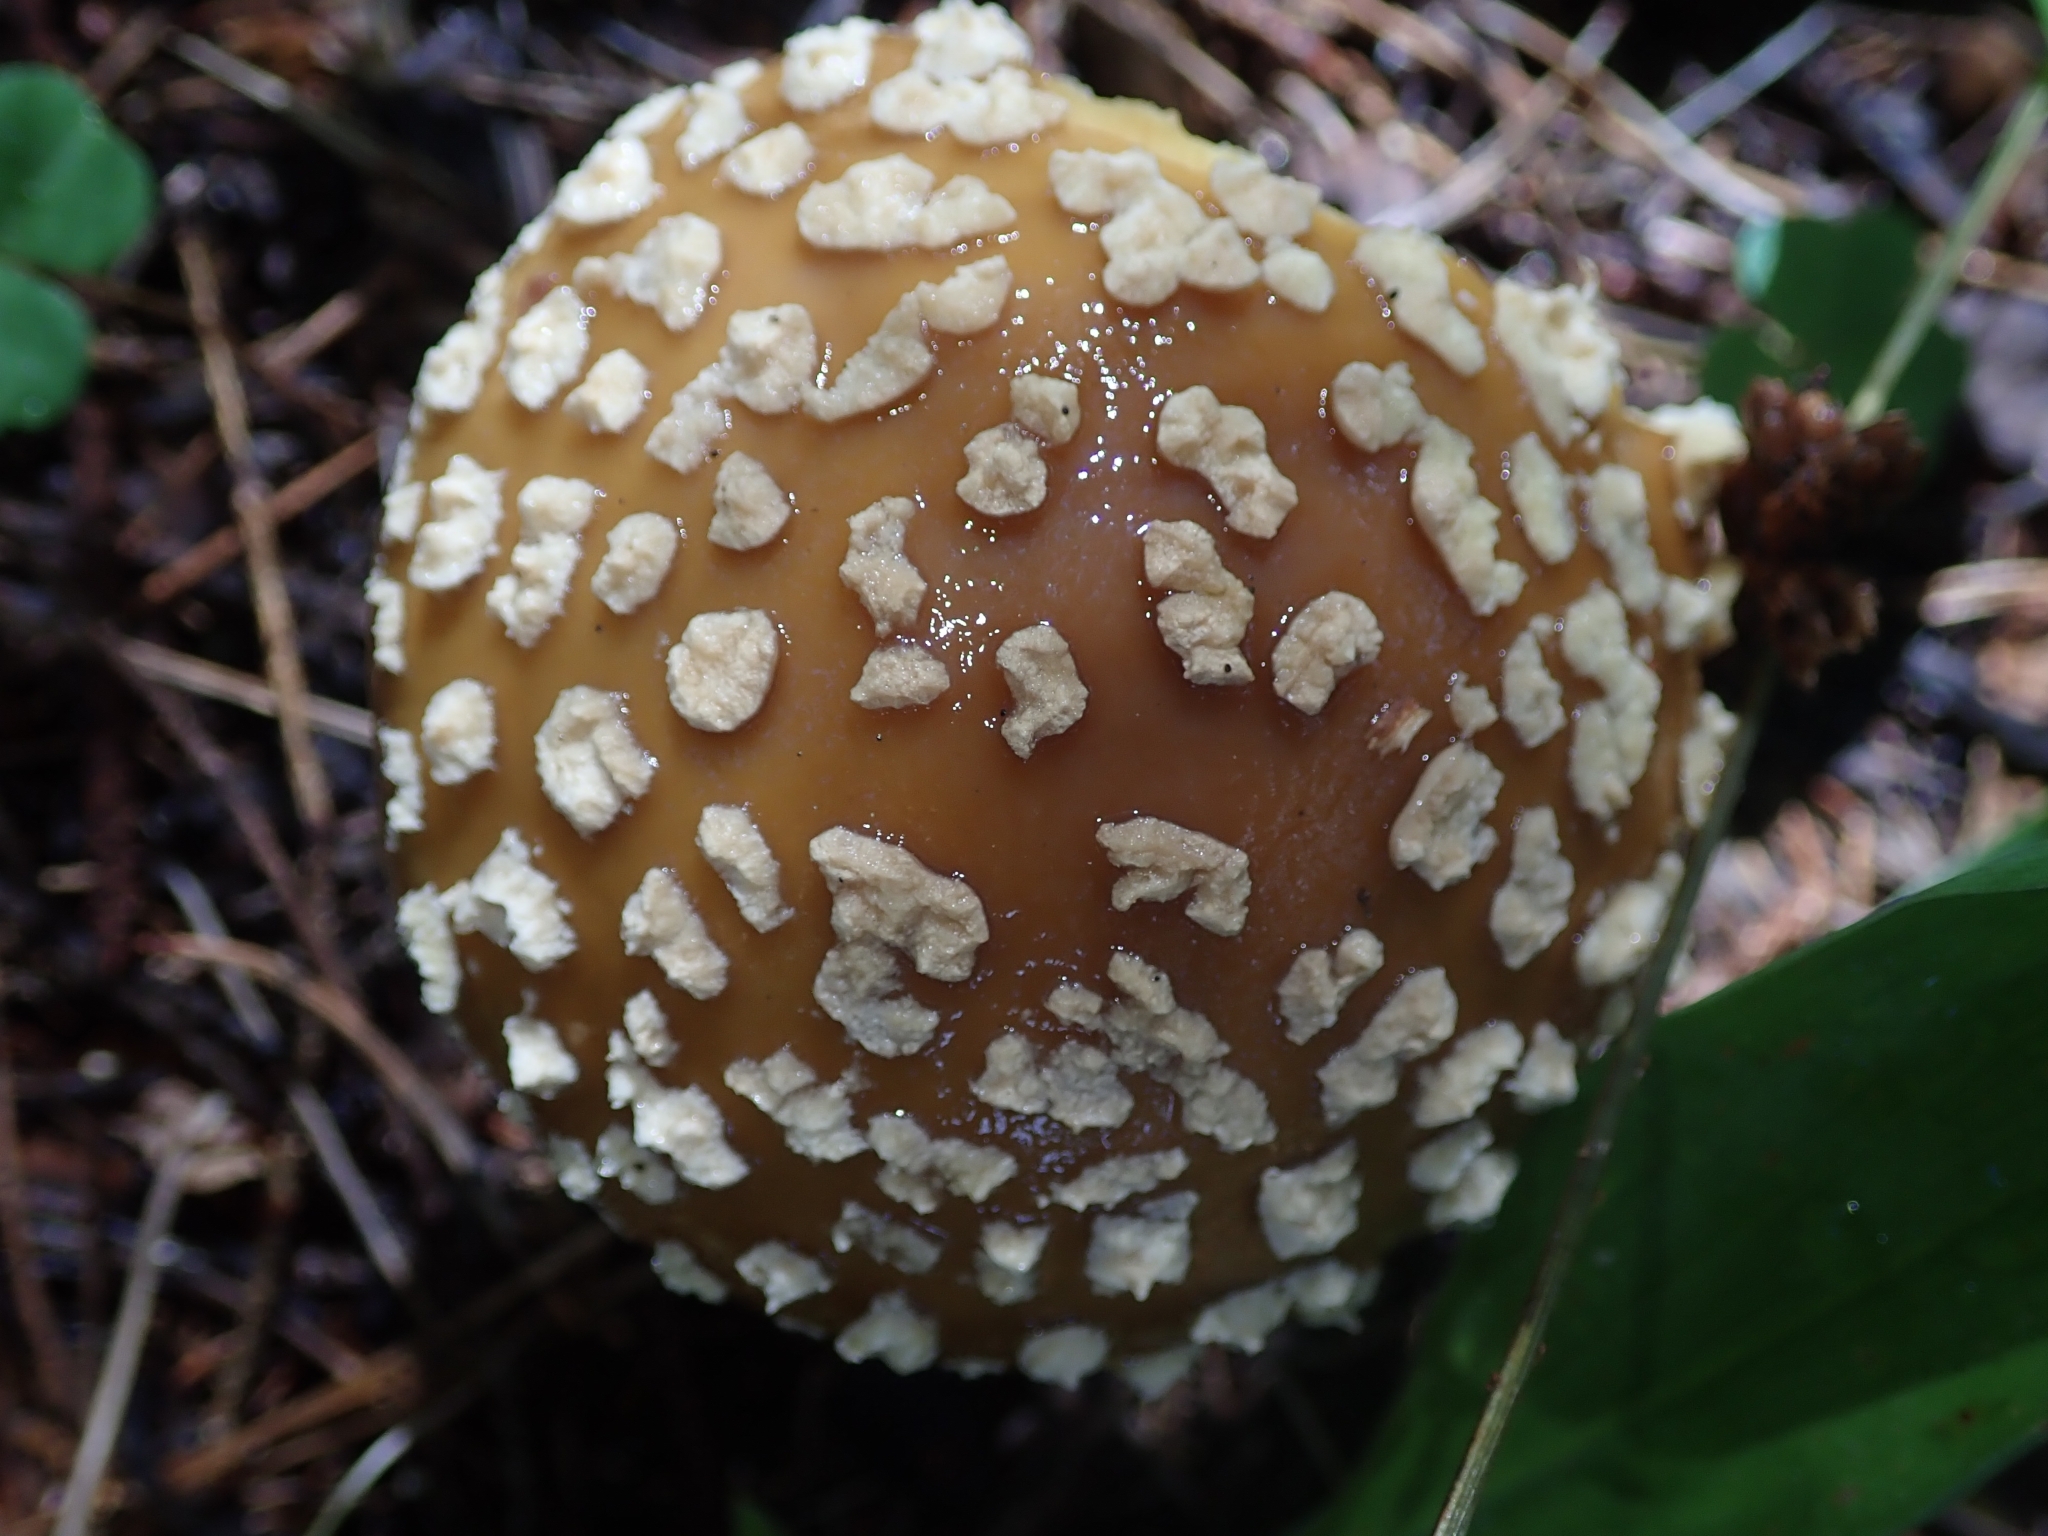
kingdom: Fungi
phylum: Basidiomycota
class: Agaricomycetes
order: Agaricales
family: Amanitaceae
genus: Amanita
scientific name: Amanita regalis
